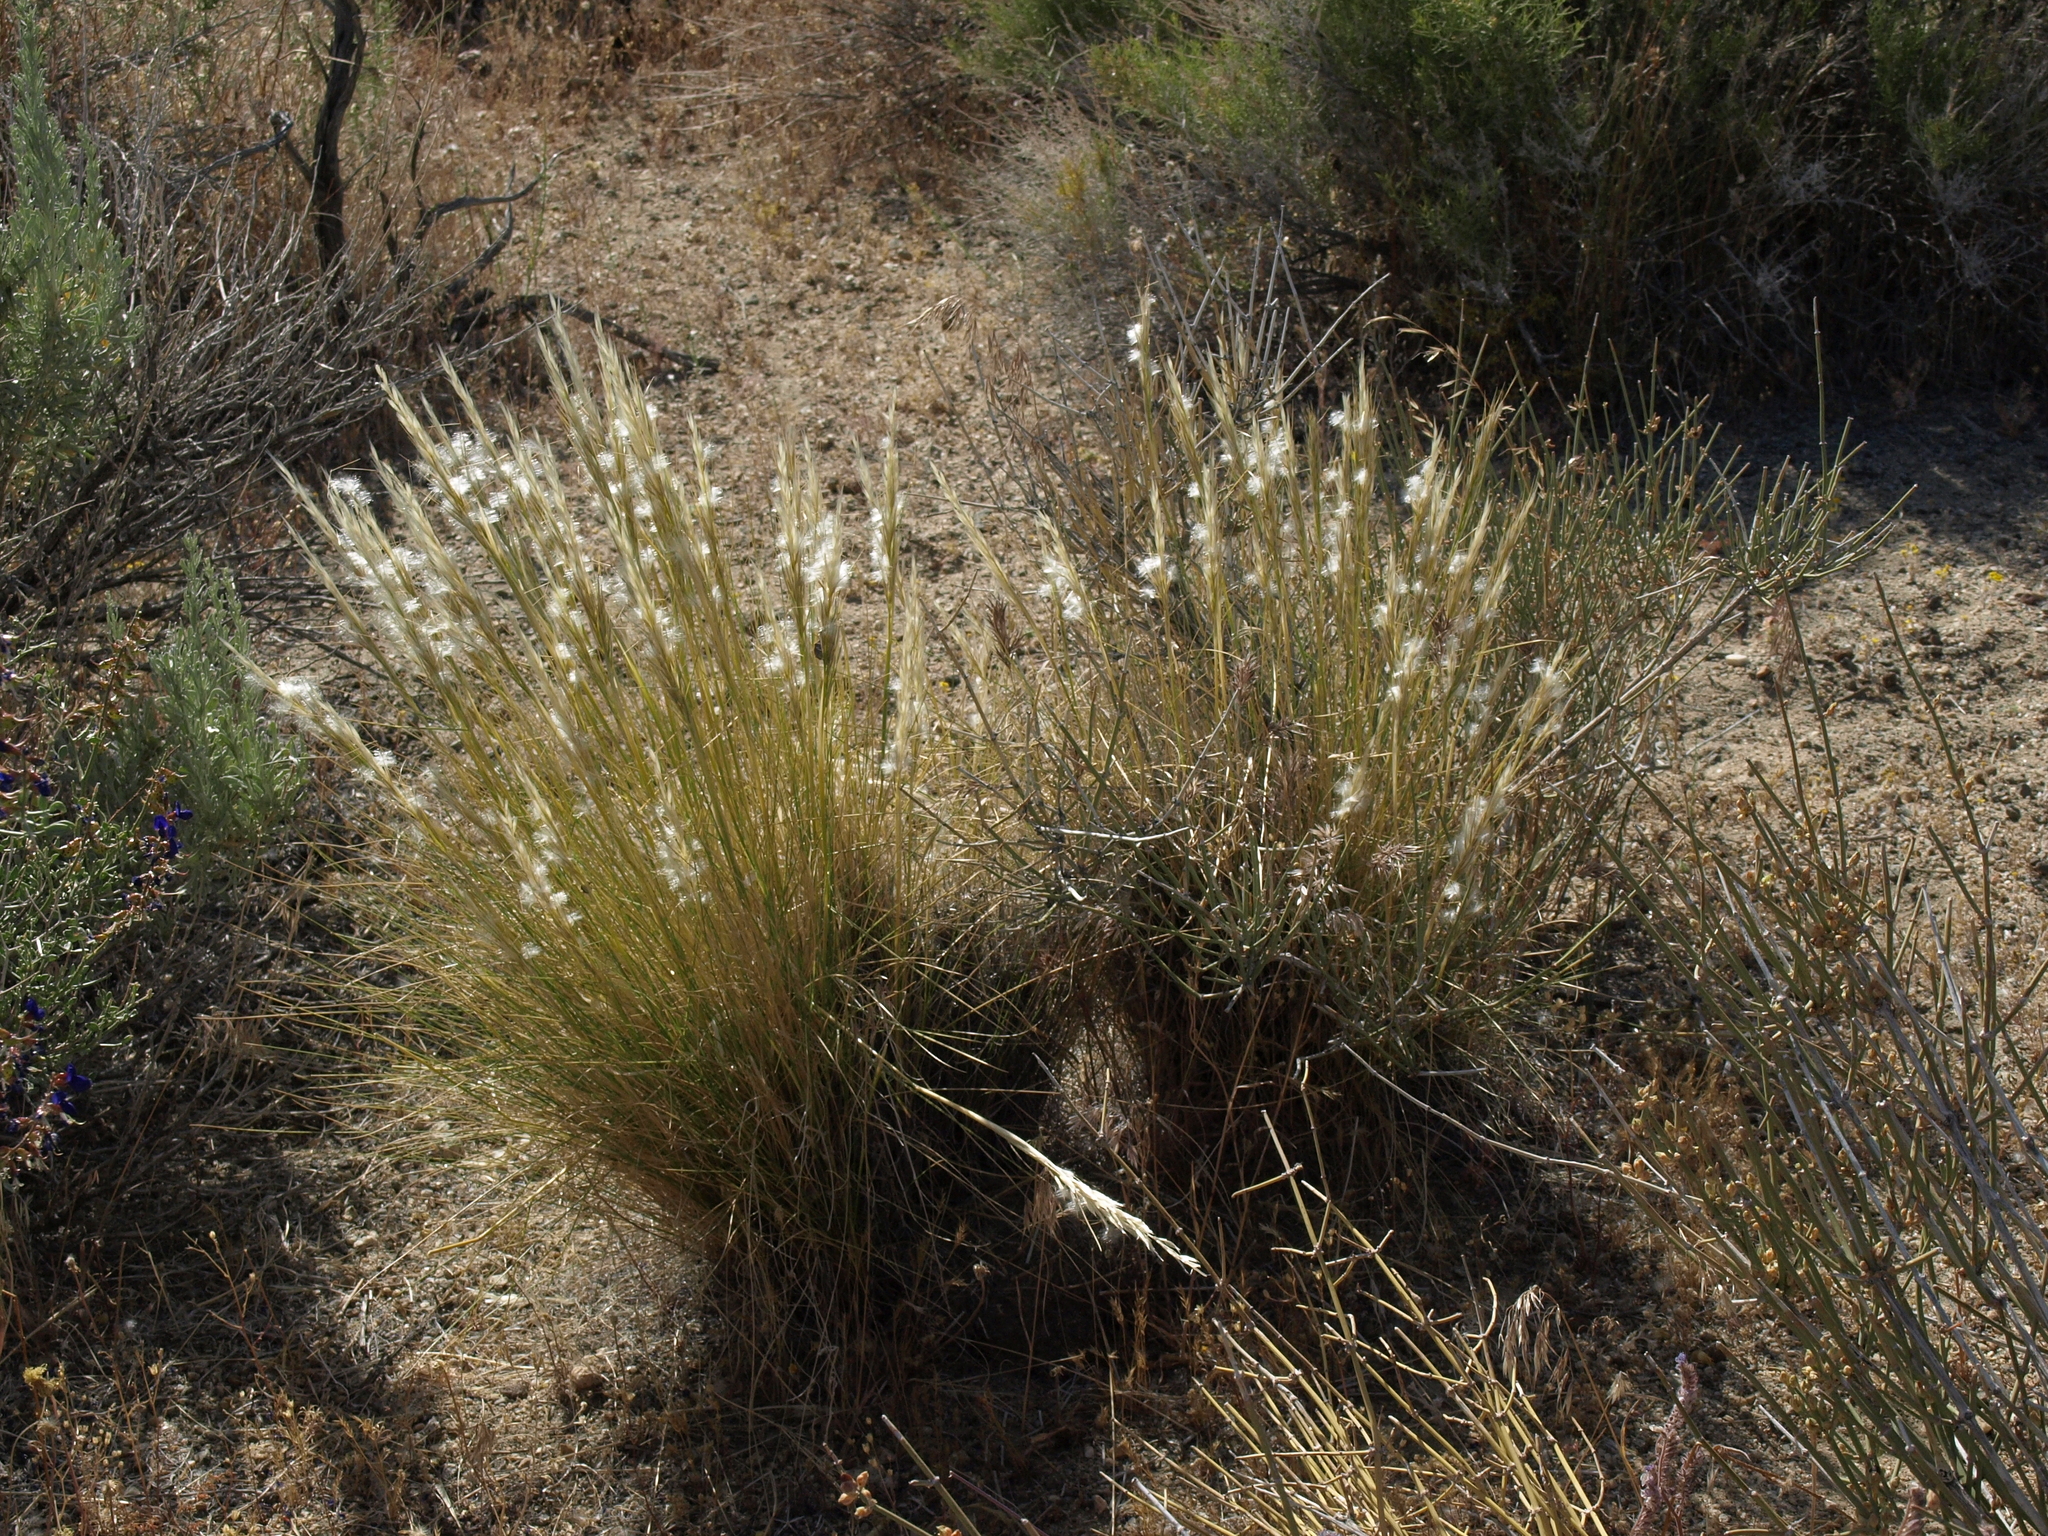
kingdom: Plantae
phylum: Tracheophyta
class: Liliopsida
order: Poales
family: Poaceae
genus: Pappostipa
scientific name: Pappostipa speciosa
